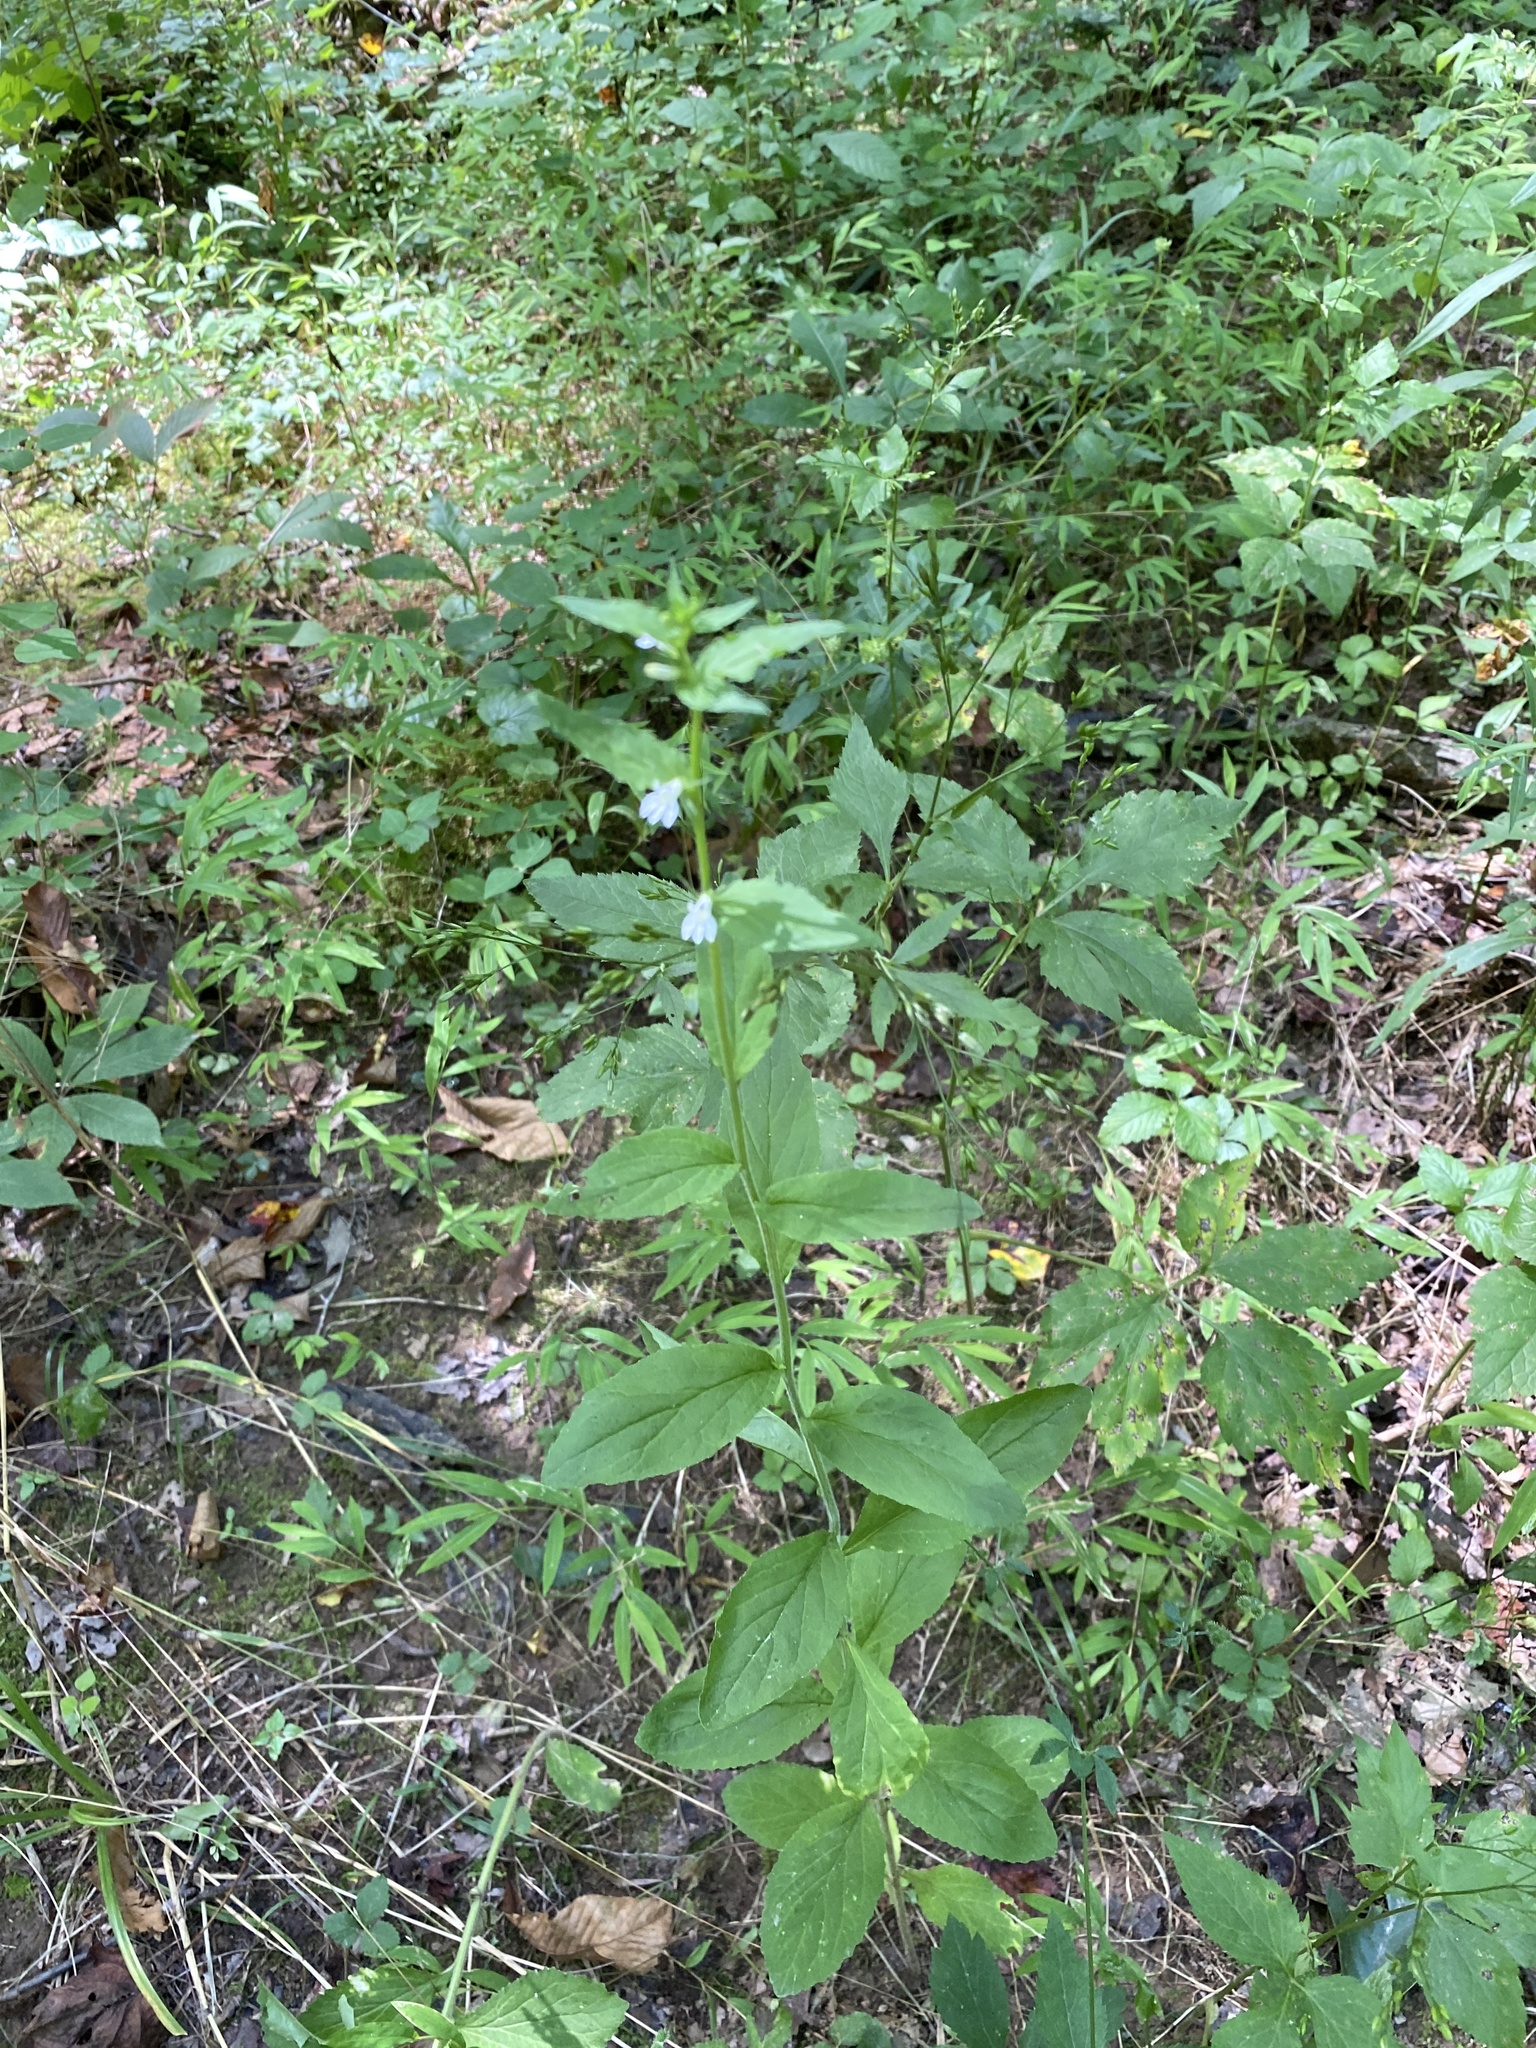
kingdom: Plantae
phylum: Tracheophyta
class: Magnoliopsida
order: Asterales
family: Campanulaceae
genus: Lobelia
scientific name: Lobelia inflata
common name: Indian tobacco
